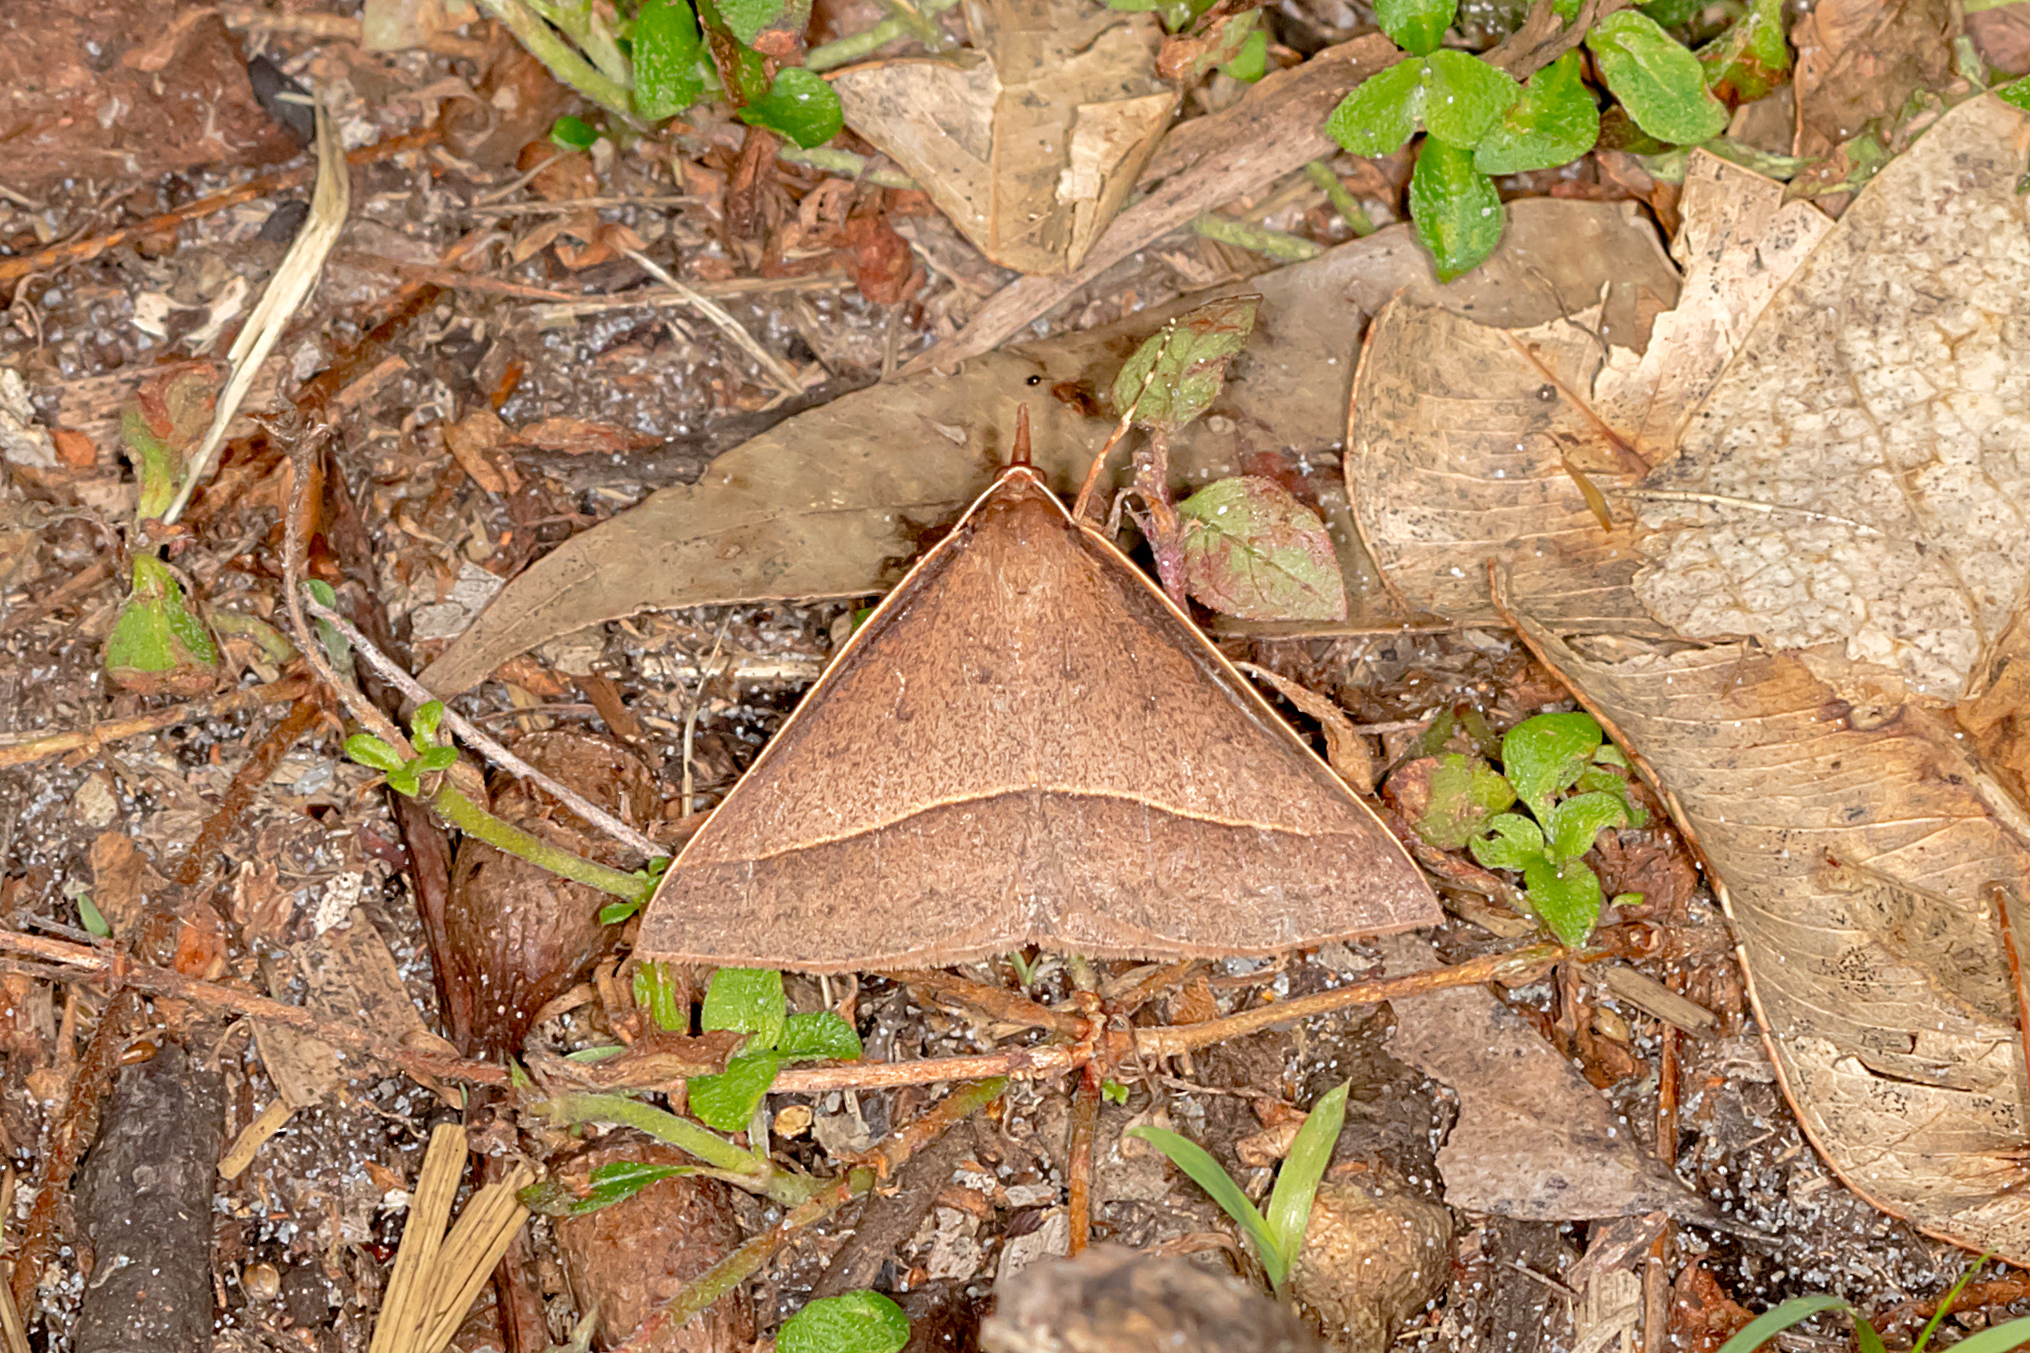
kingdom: Animalia
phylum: Arthropoda
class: Insecta
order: Lepidoptera
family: Geometridae
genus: Epidesmia
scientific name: Epidesmia chilonaria
